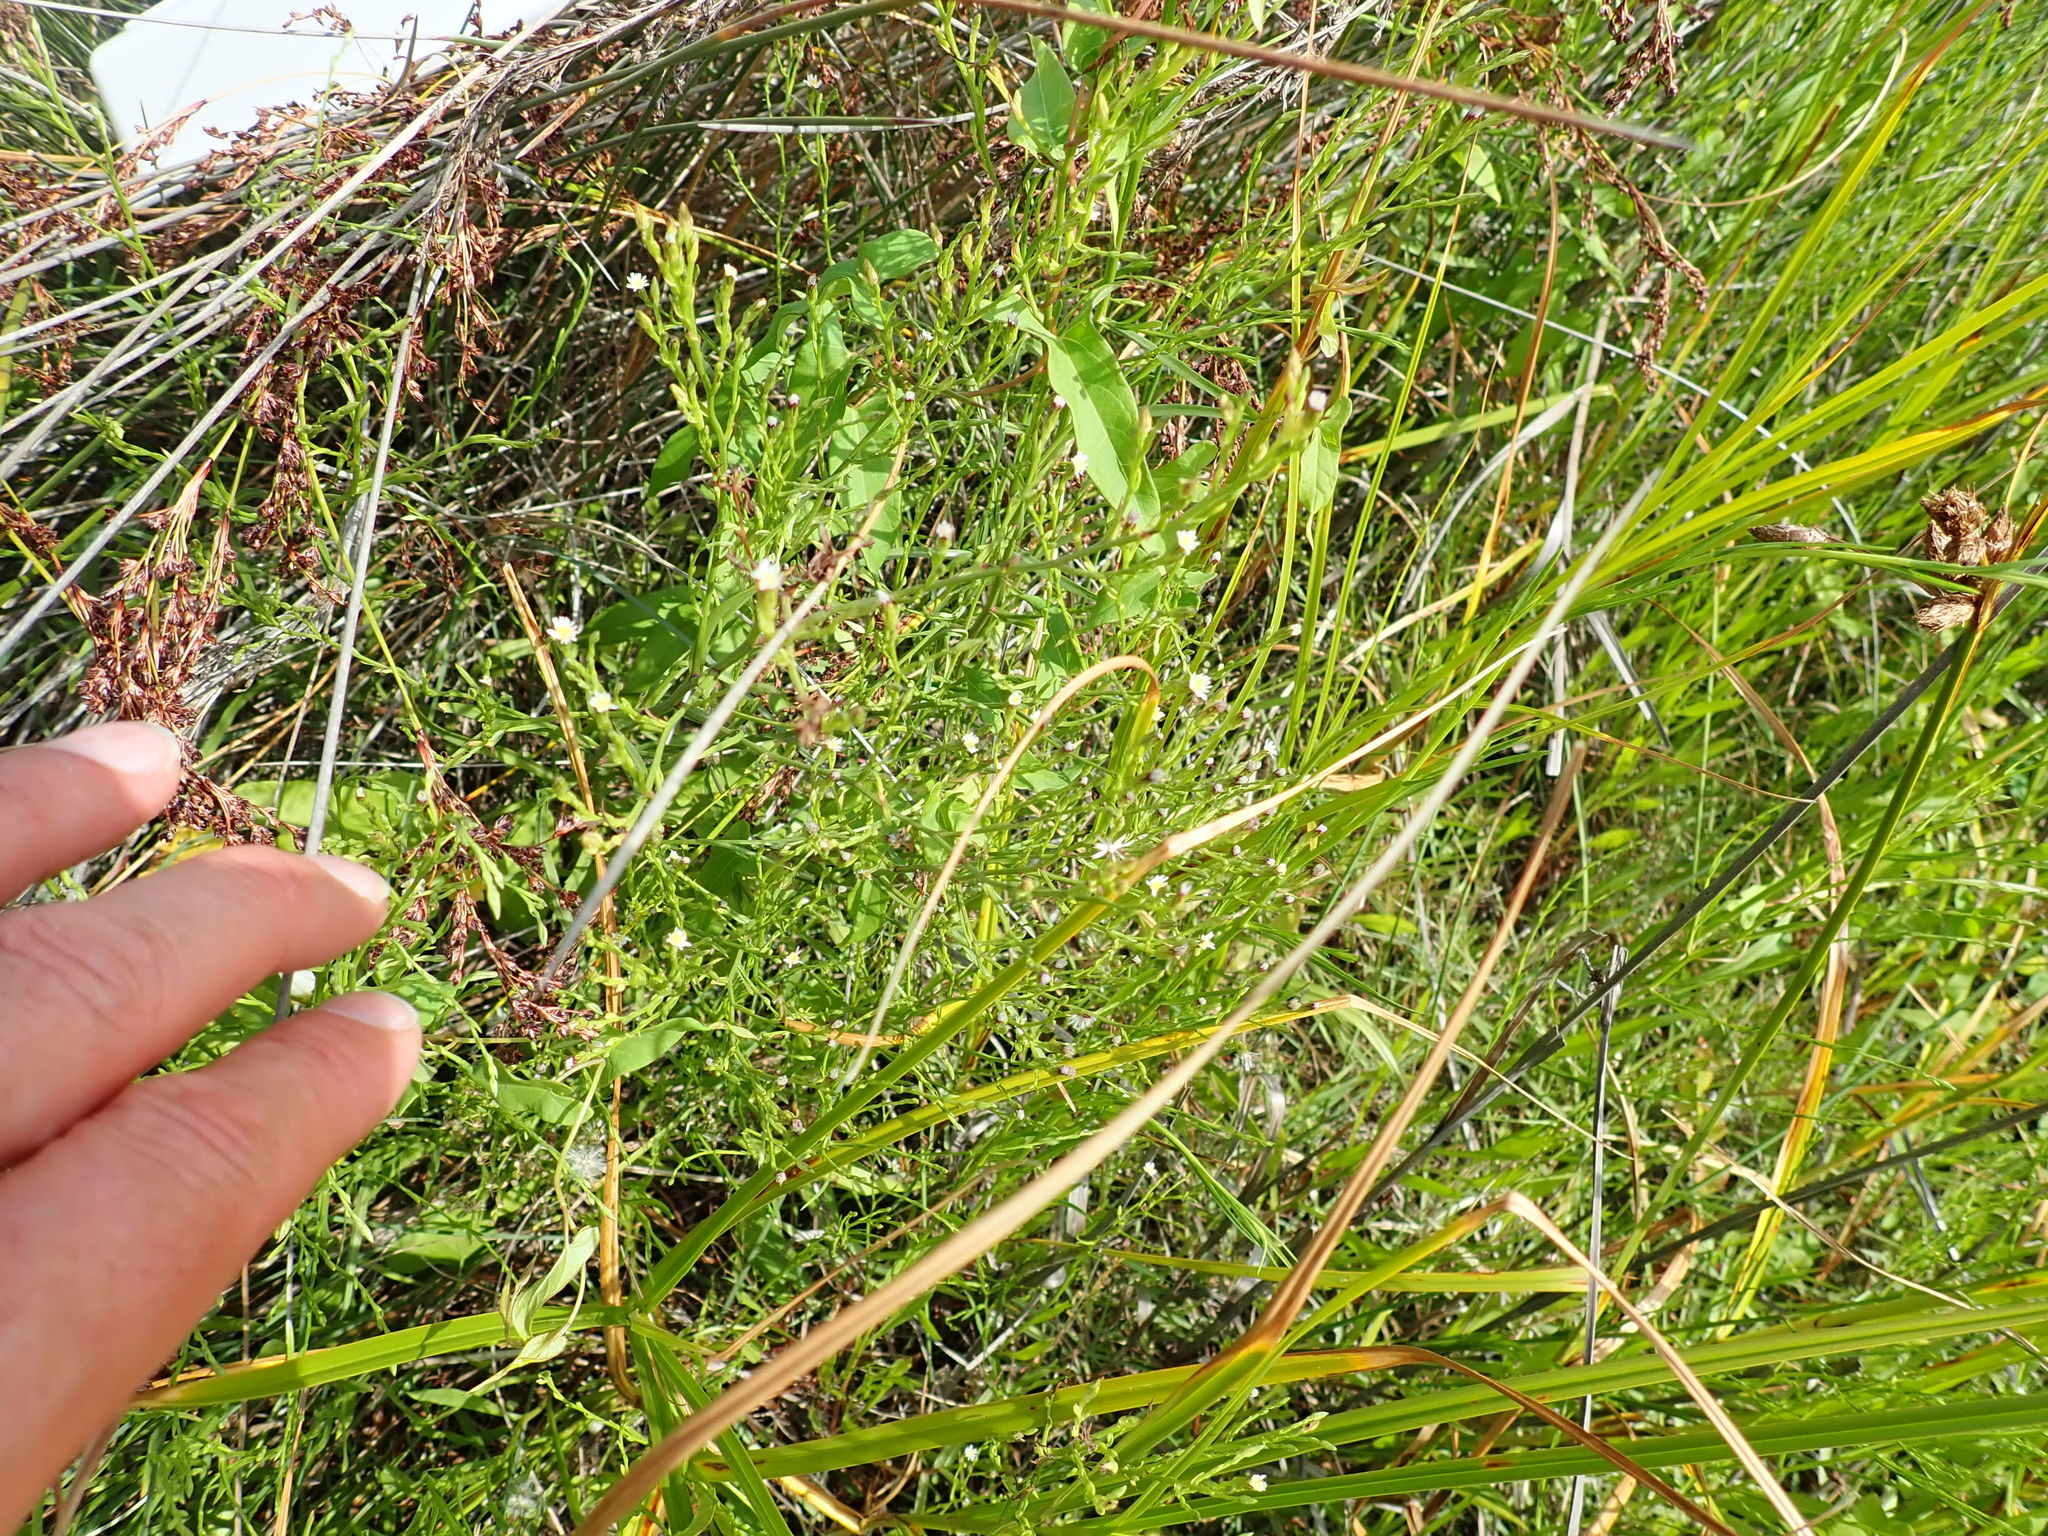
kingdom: Plantae
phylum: Tracheophyta
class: Magnoliopsida
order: Asterales
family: Asteraceae
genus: Symphyotrichum
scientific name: Symphyotrichum subulatum
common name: Annual saltmarsh aster
